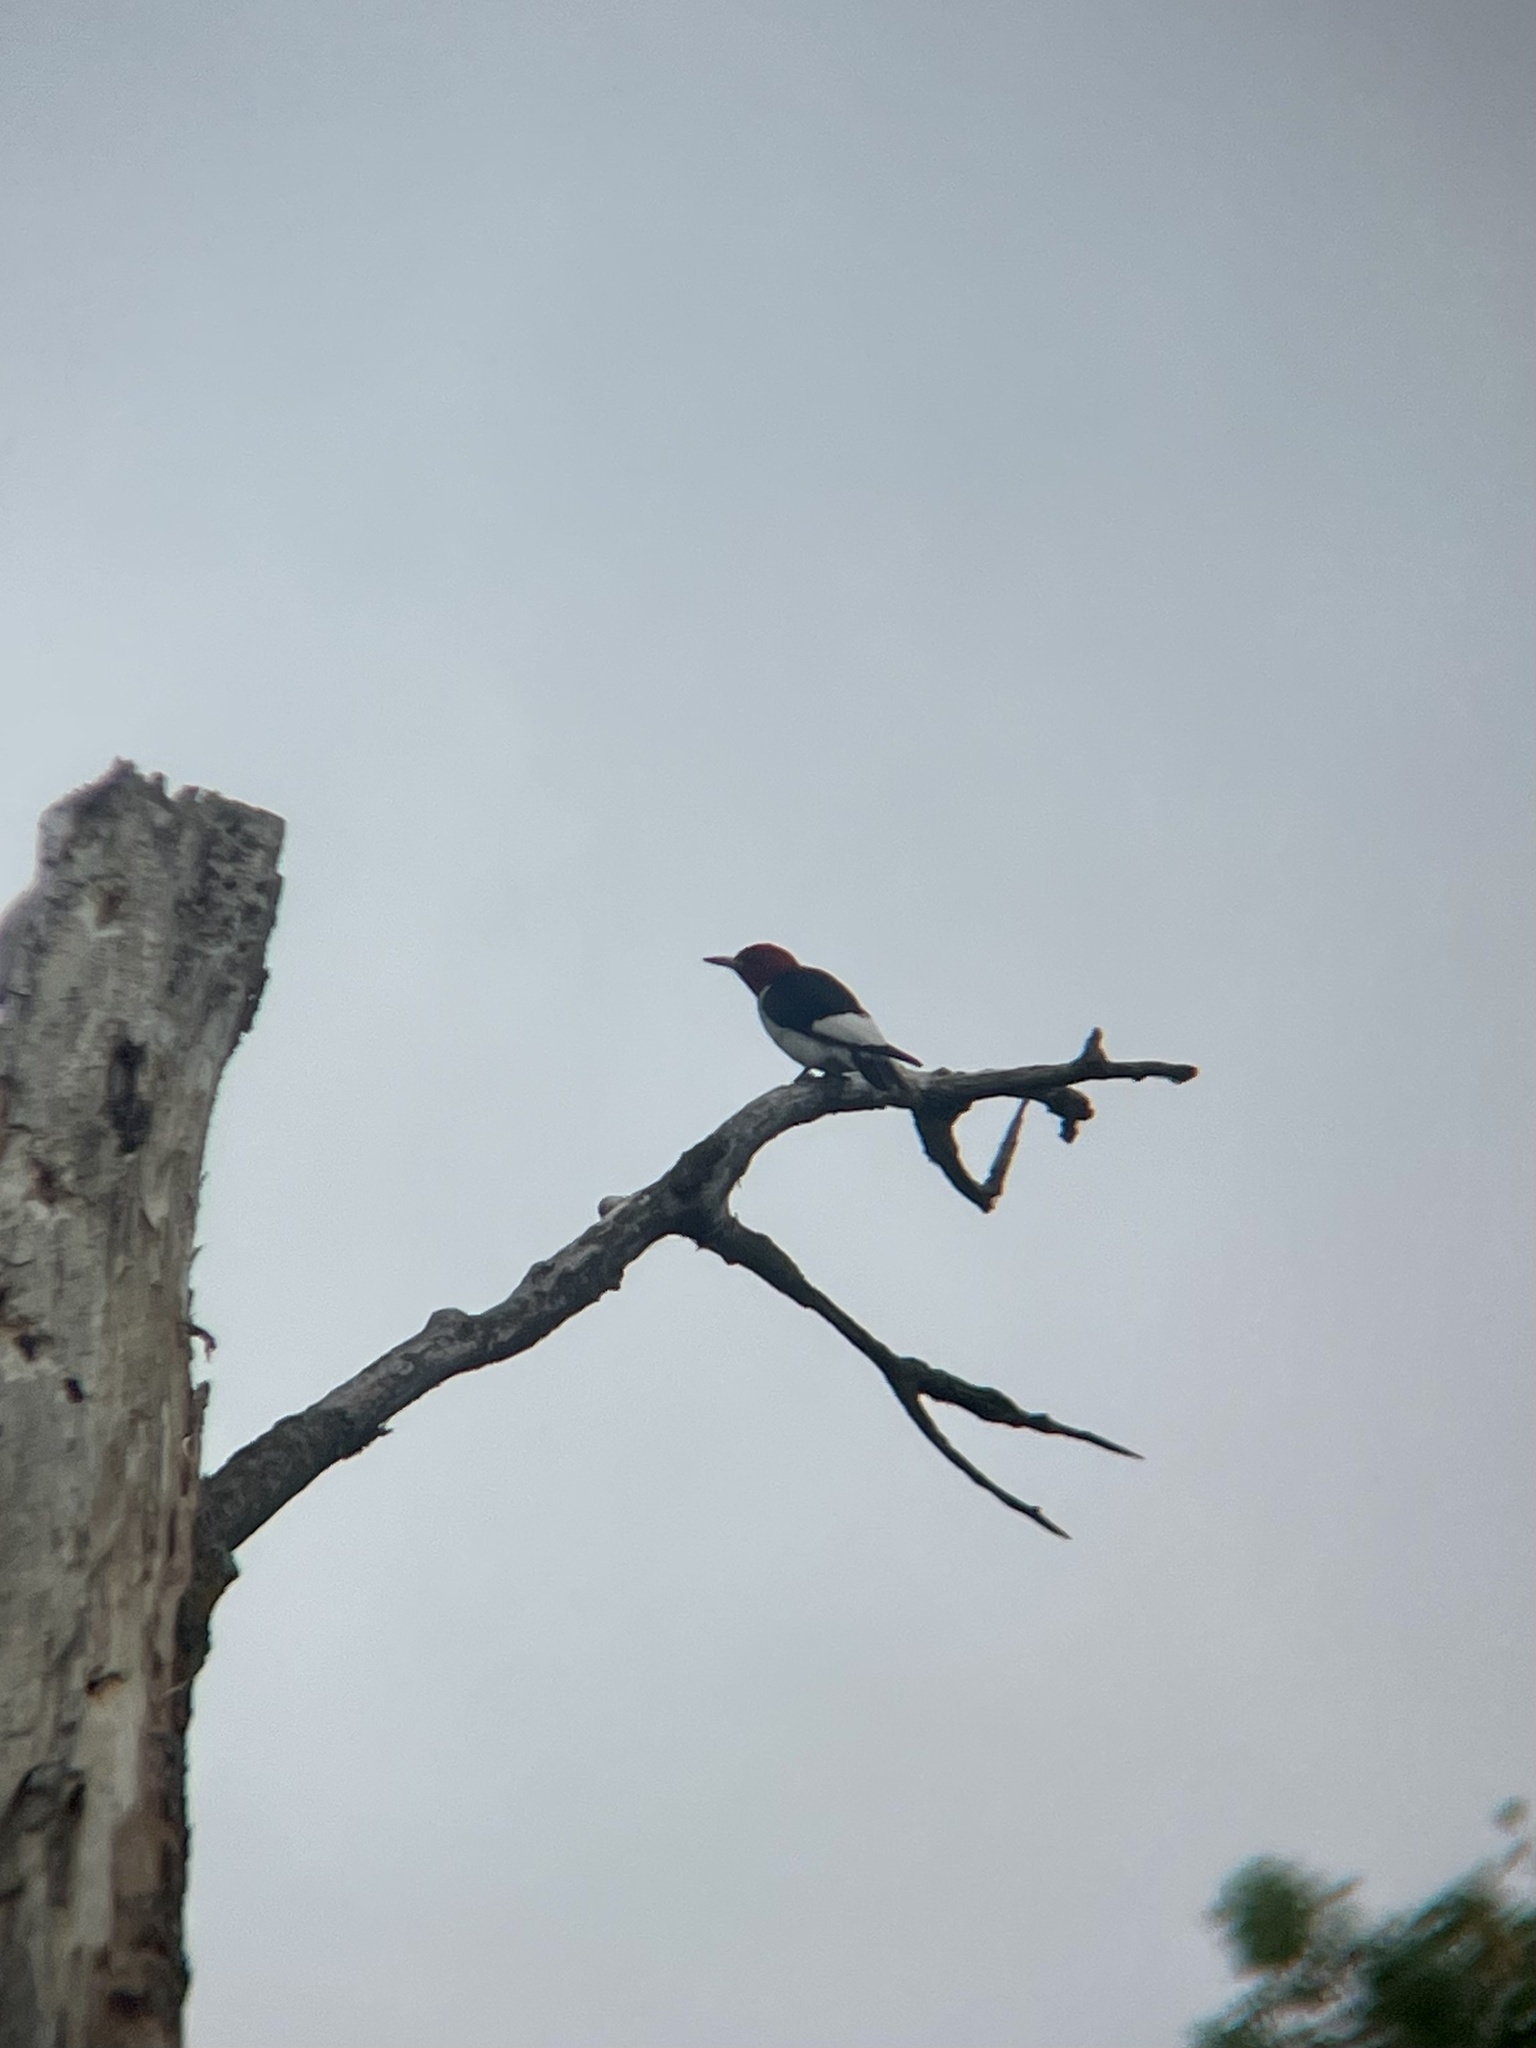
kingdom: Animalia
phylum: Chordata
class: Aves
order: Piciformes
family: Picidae
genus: Melanerpes
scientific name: Melanerpes erythrocephalus
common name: Red-headed woodpecker
